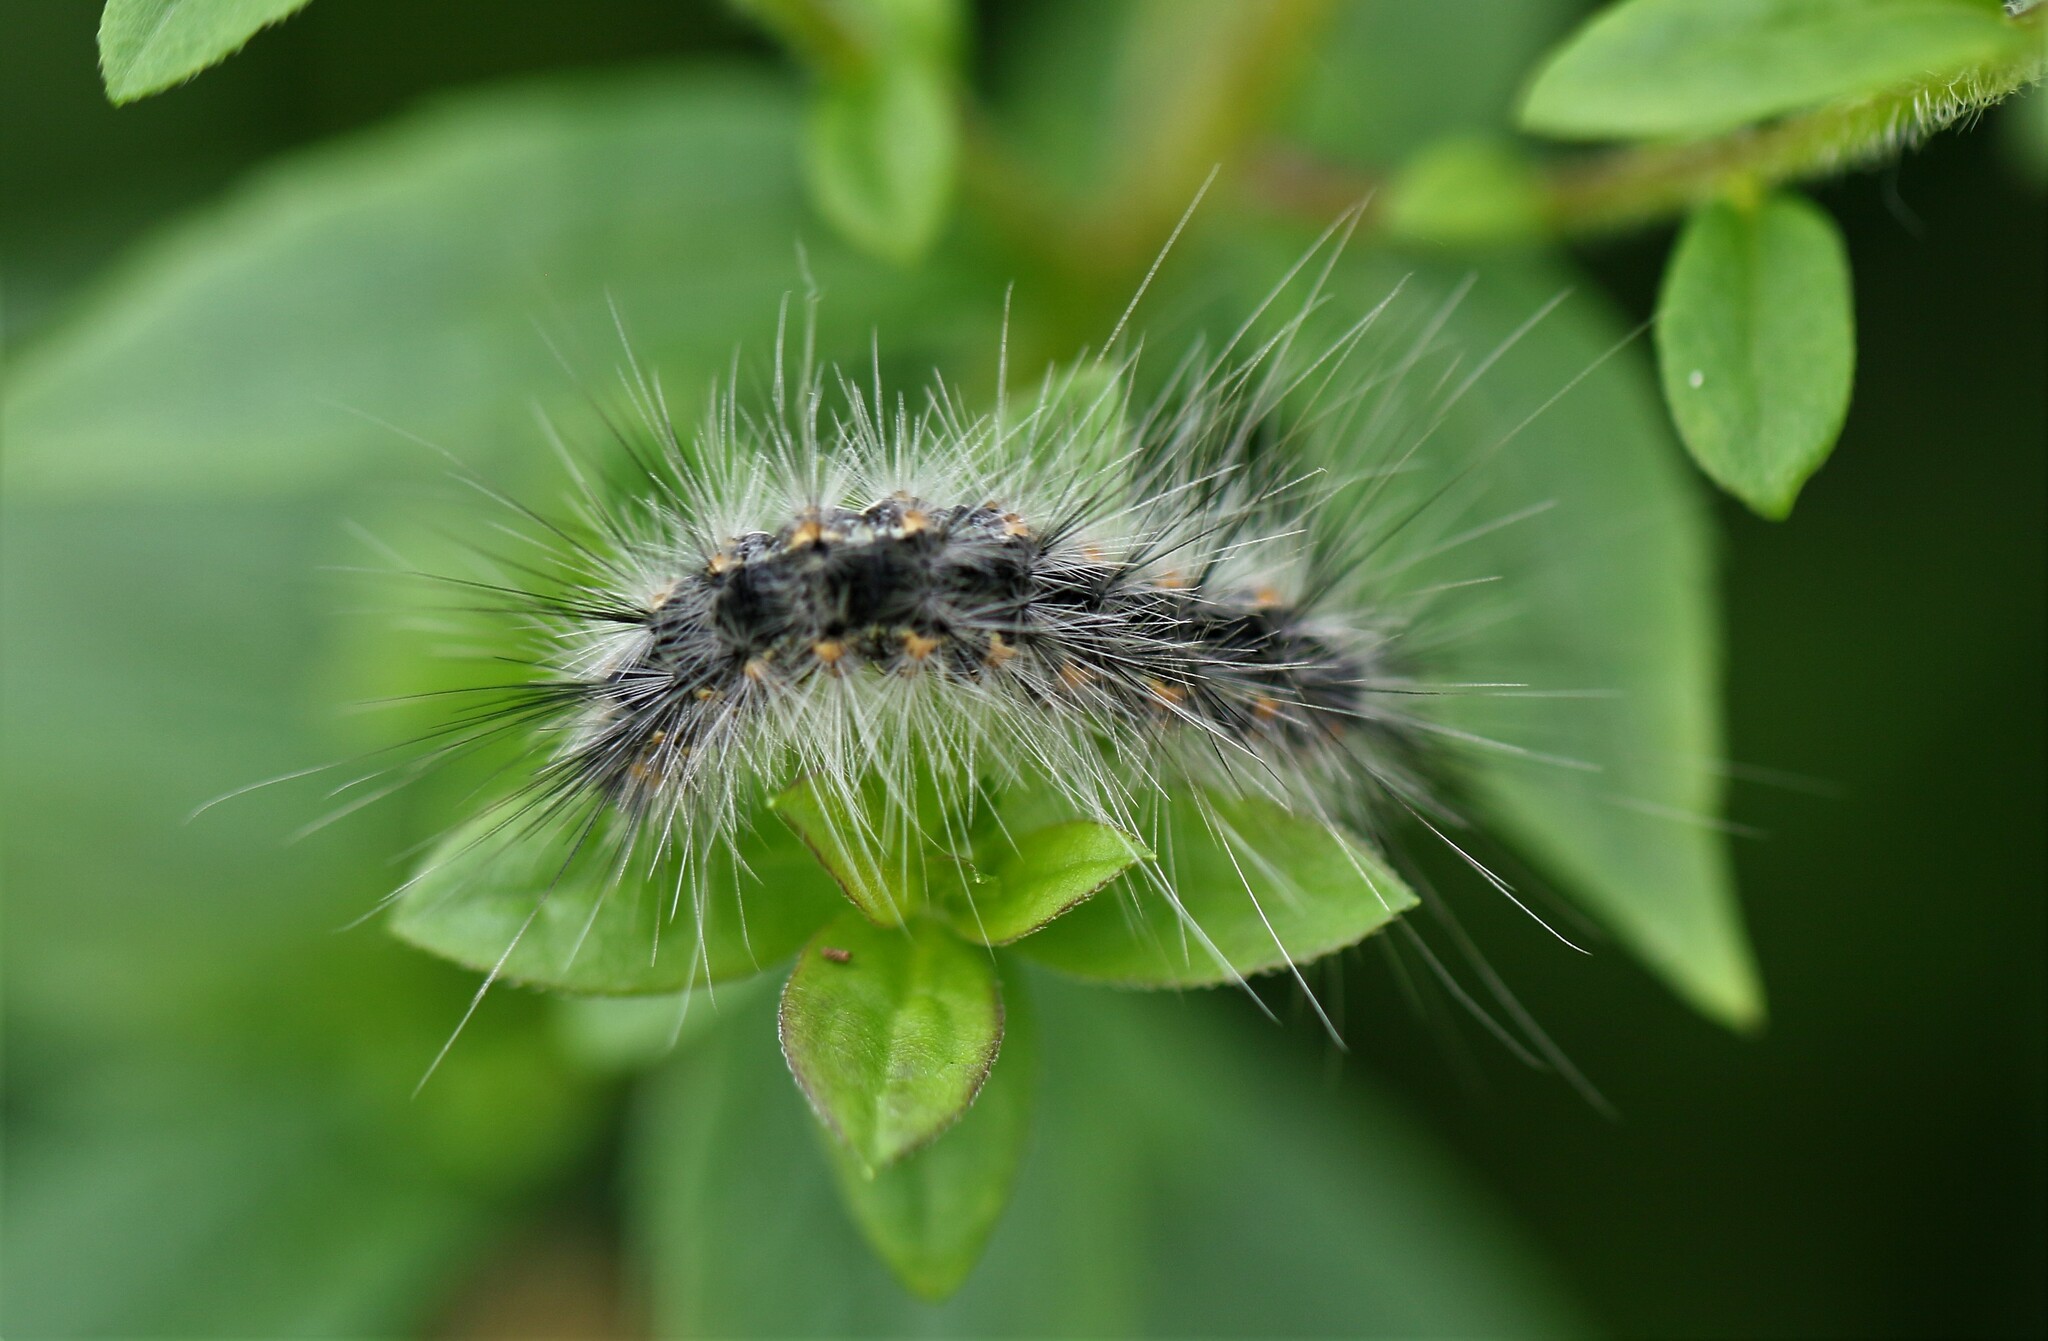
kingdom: Animalia
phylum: Arthropoda
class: Insecta
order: Lepidoptera
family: Erebidae
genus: Hyphantria
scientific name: Hyphantria cunea
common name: American white moth
